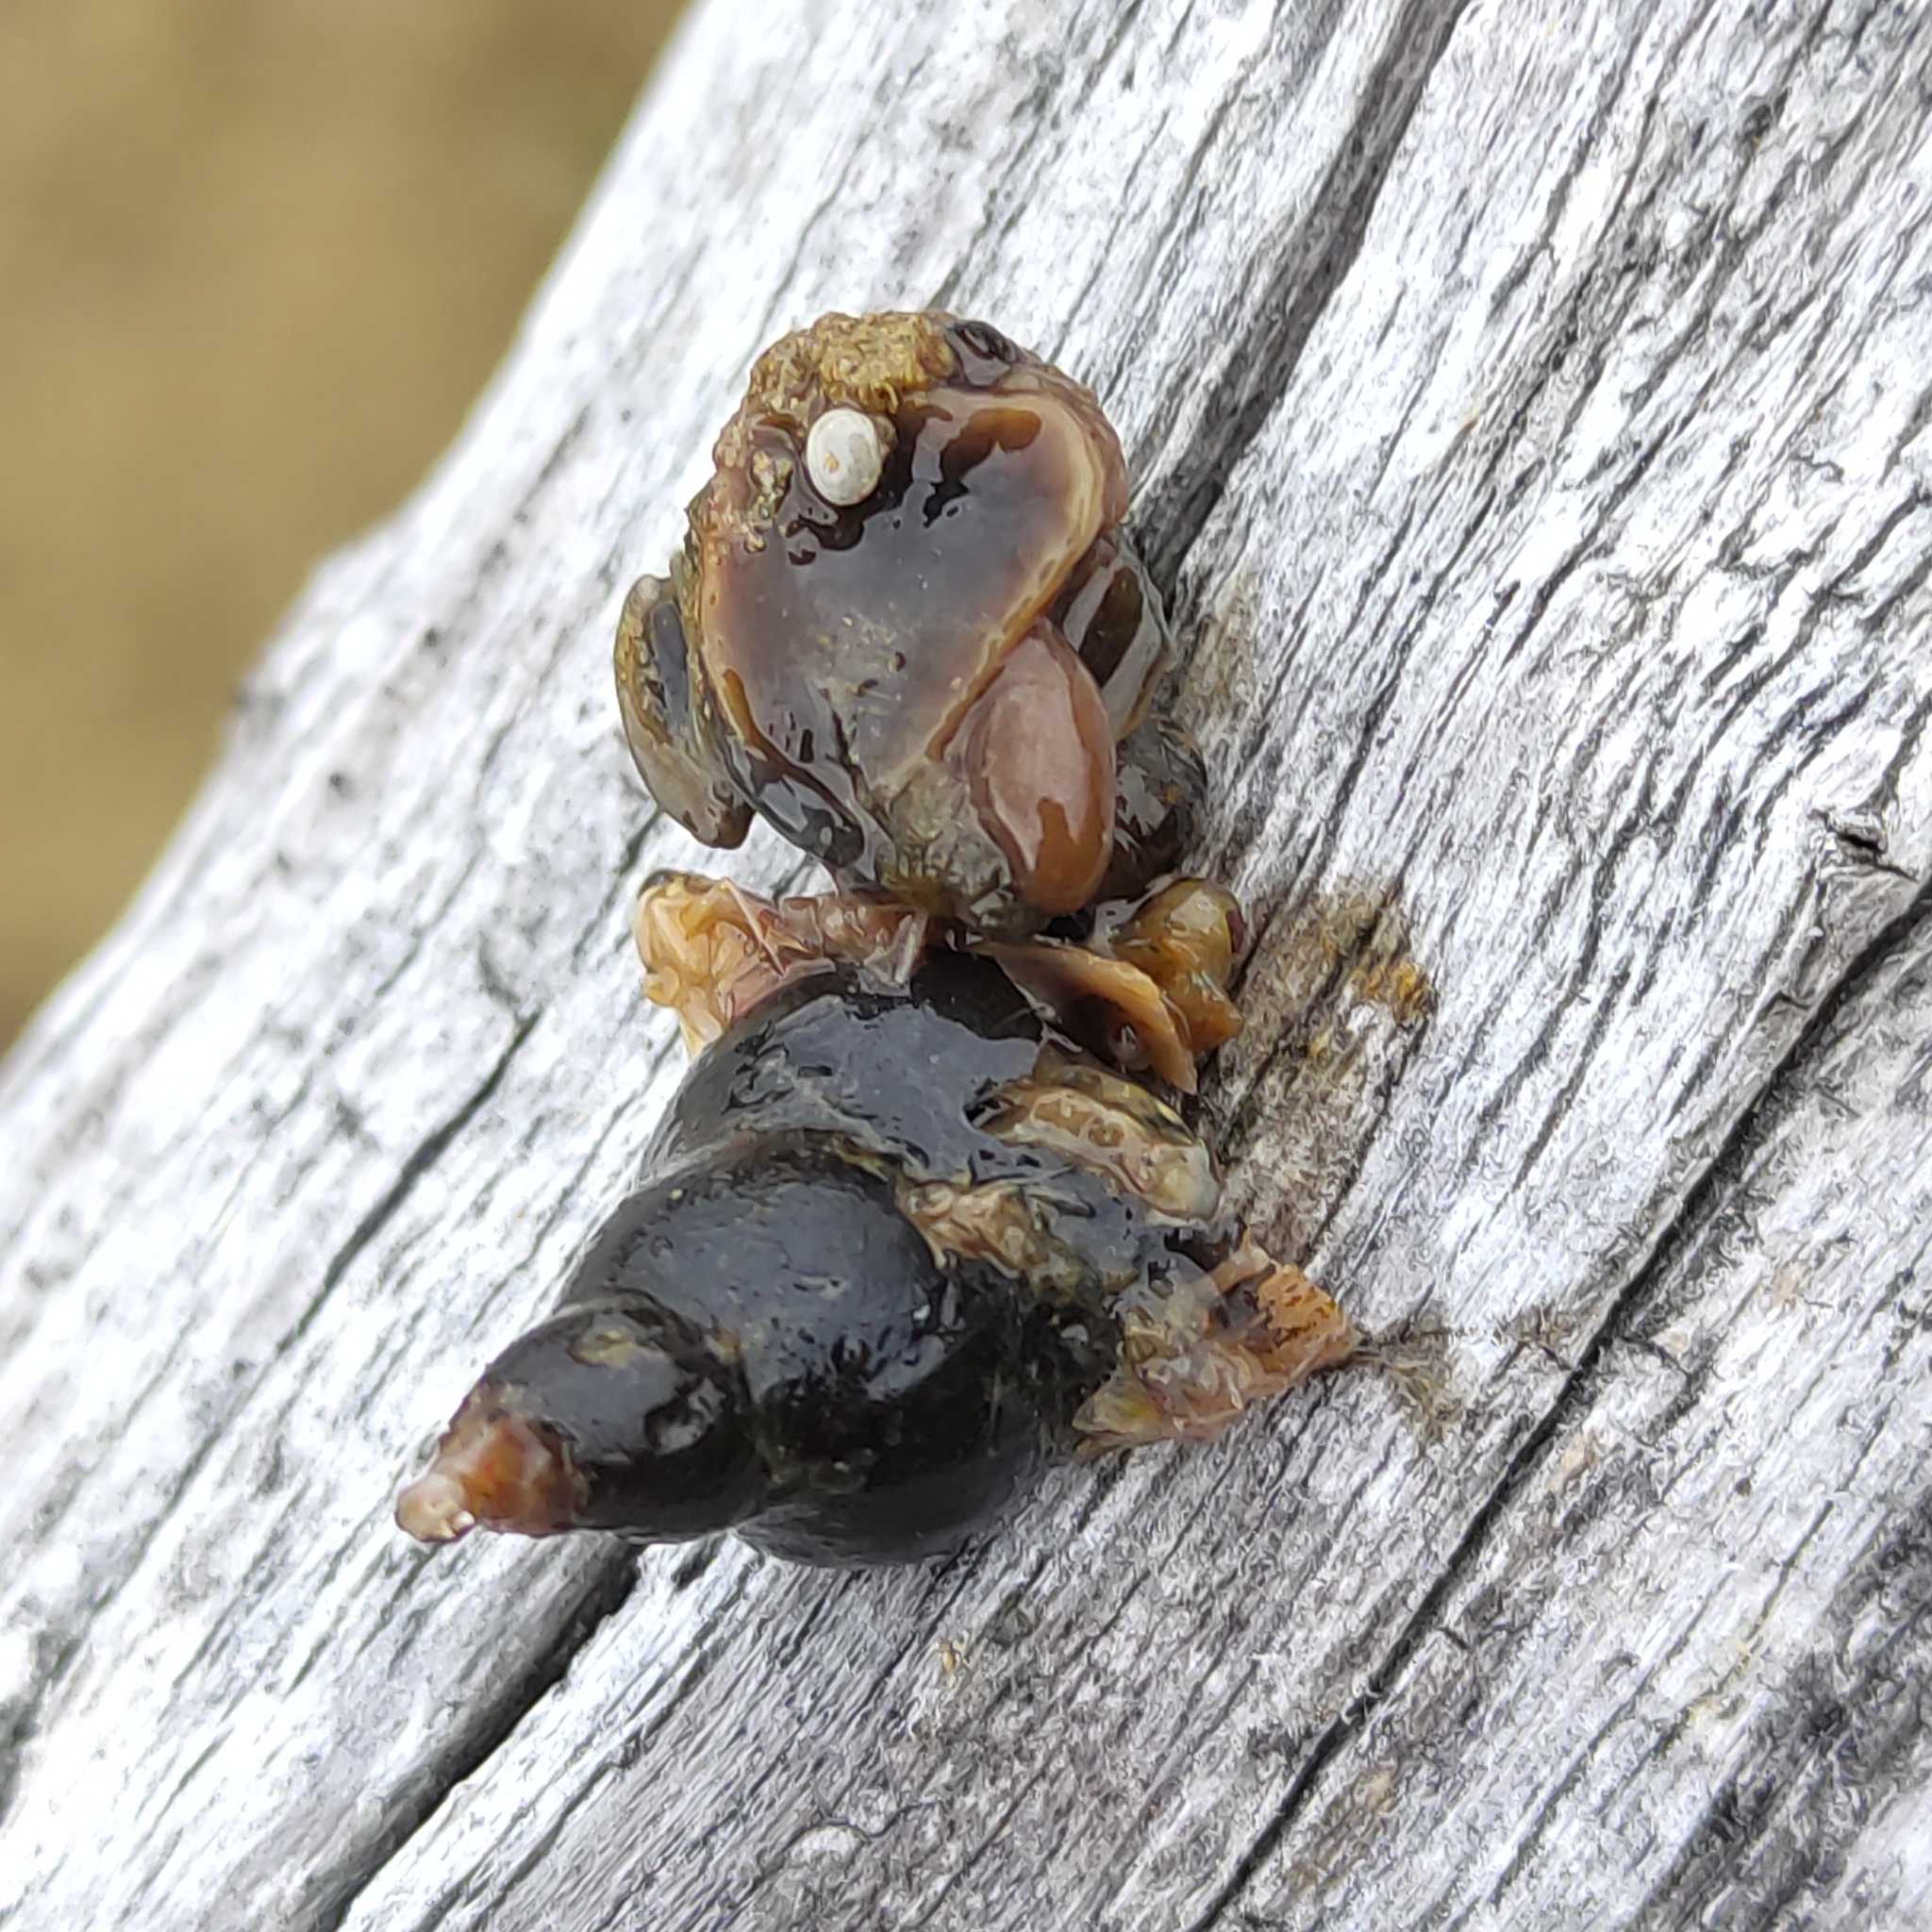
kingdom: Animalia
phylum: Mollusca
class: Gastropoda
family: Lymnaeidae
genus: Lymnaea
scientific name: Lymnaea stagnalis
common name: Great pond snail
